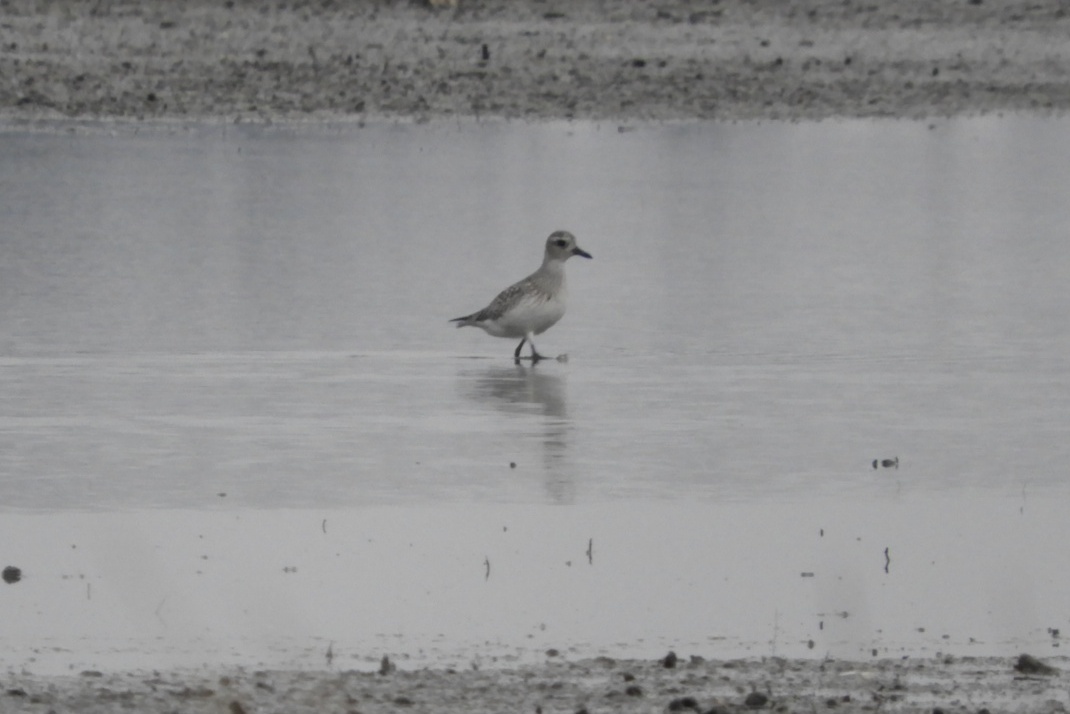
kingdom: Animalia
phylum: Chordata
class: Aves
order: Charadriiformes
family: Charadriidae
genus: Pluvialis
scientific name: Pluvialis squatarola
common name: Grey plover
